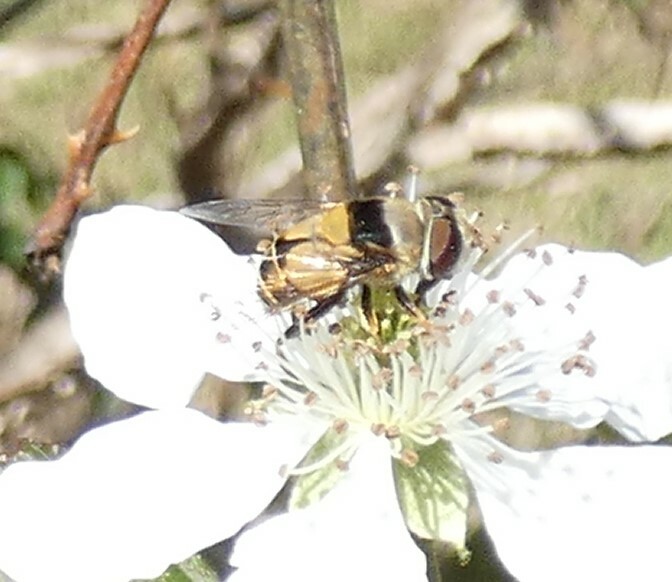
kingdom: Animalia
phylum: Arthropoda
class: Insecta
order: Diptera
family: Syrphidae
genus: Palpada
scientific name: Palpada pusilla
